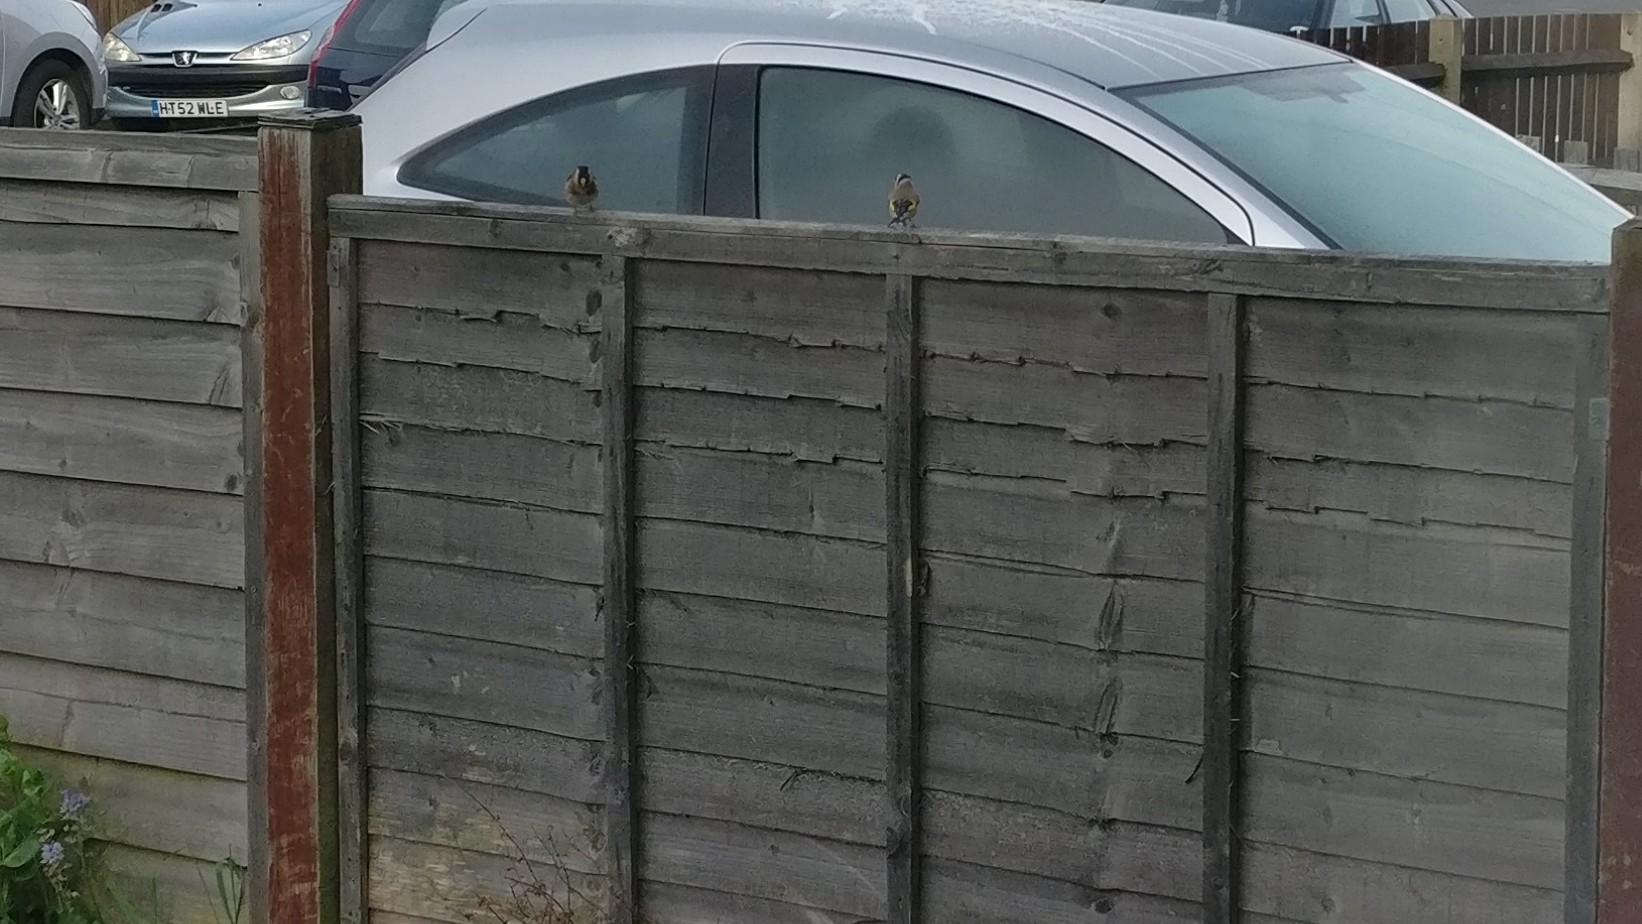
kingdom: Animalia
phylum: Chordata
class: Aves
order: Passeriformes
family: Fringillidae
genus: Carduelis
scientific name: Carduelis carduelis
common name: European goldfinch
